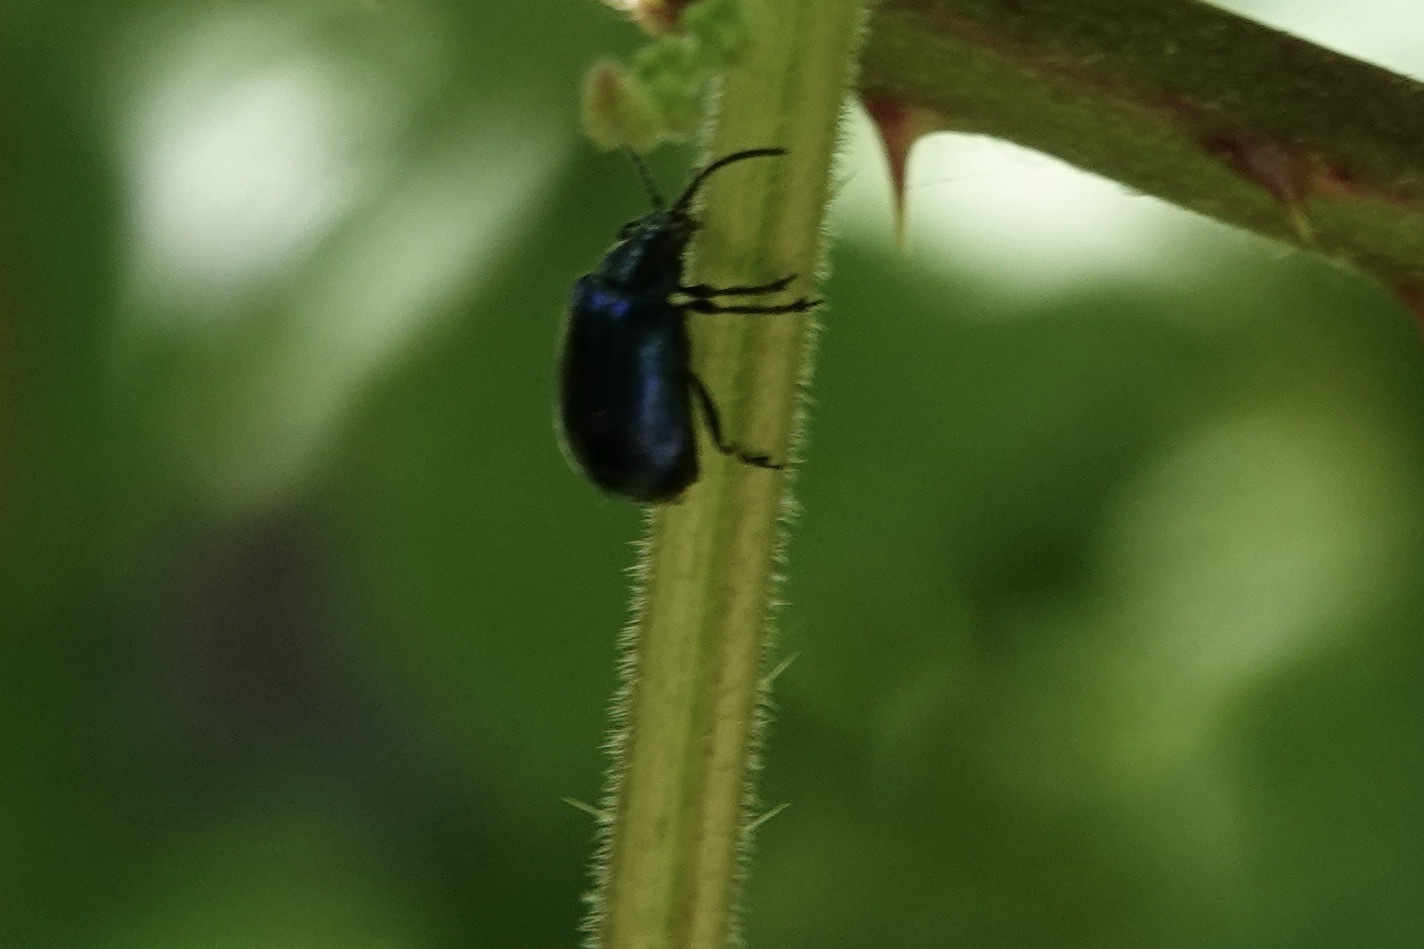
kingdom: Animalia
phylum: Arthropoda
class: Insecta
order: Coleoptera
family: Chrysomelidae
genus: Agelastica
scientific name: Agelastica alni
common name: Alder leaf beetle
